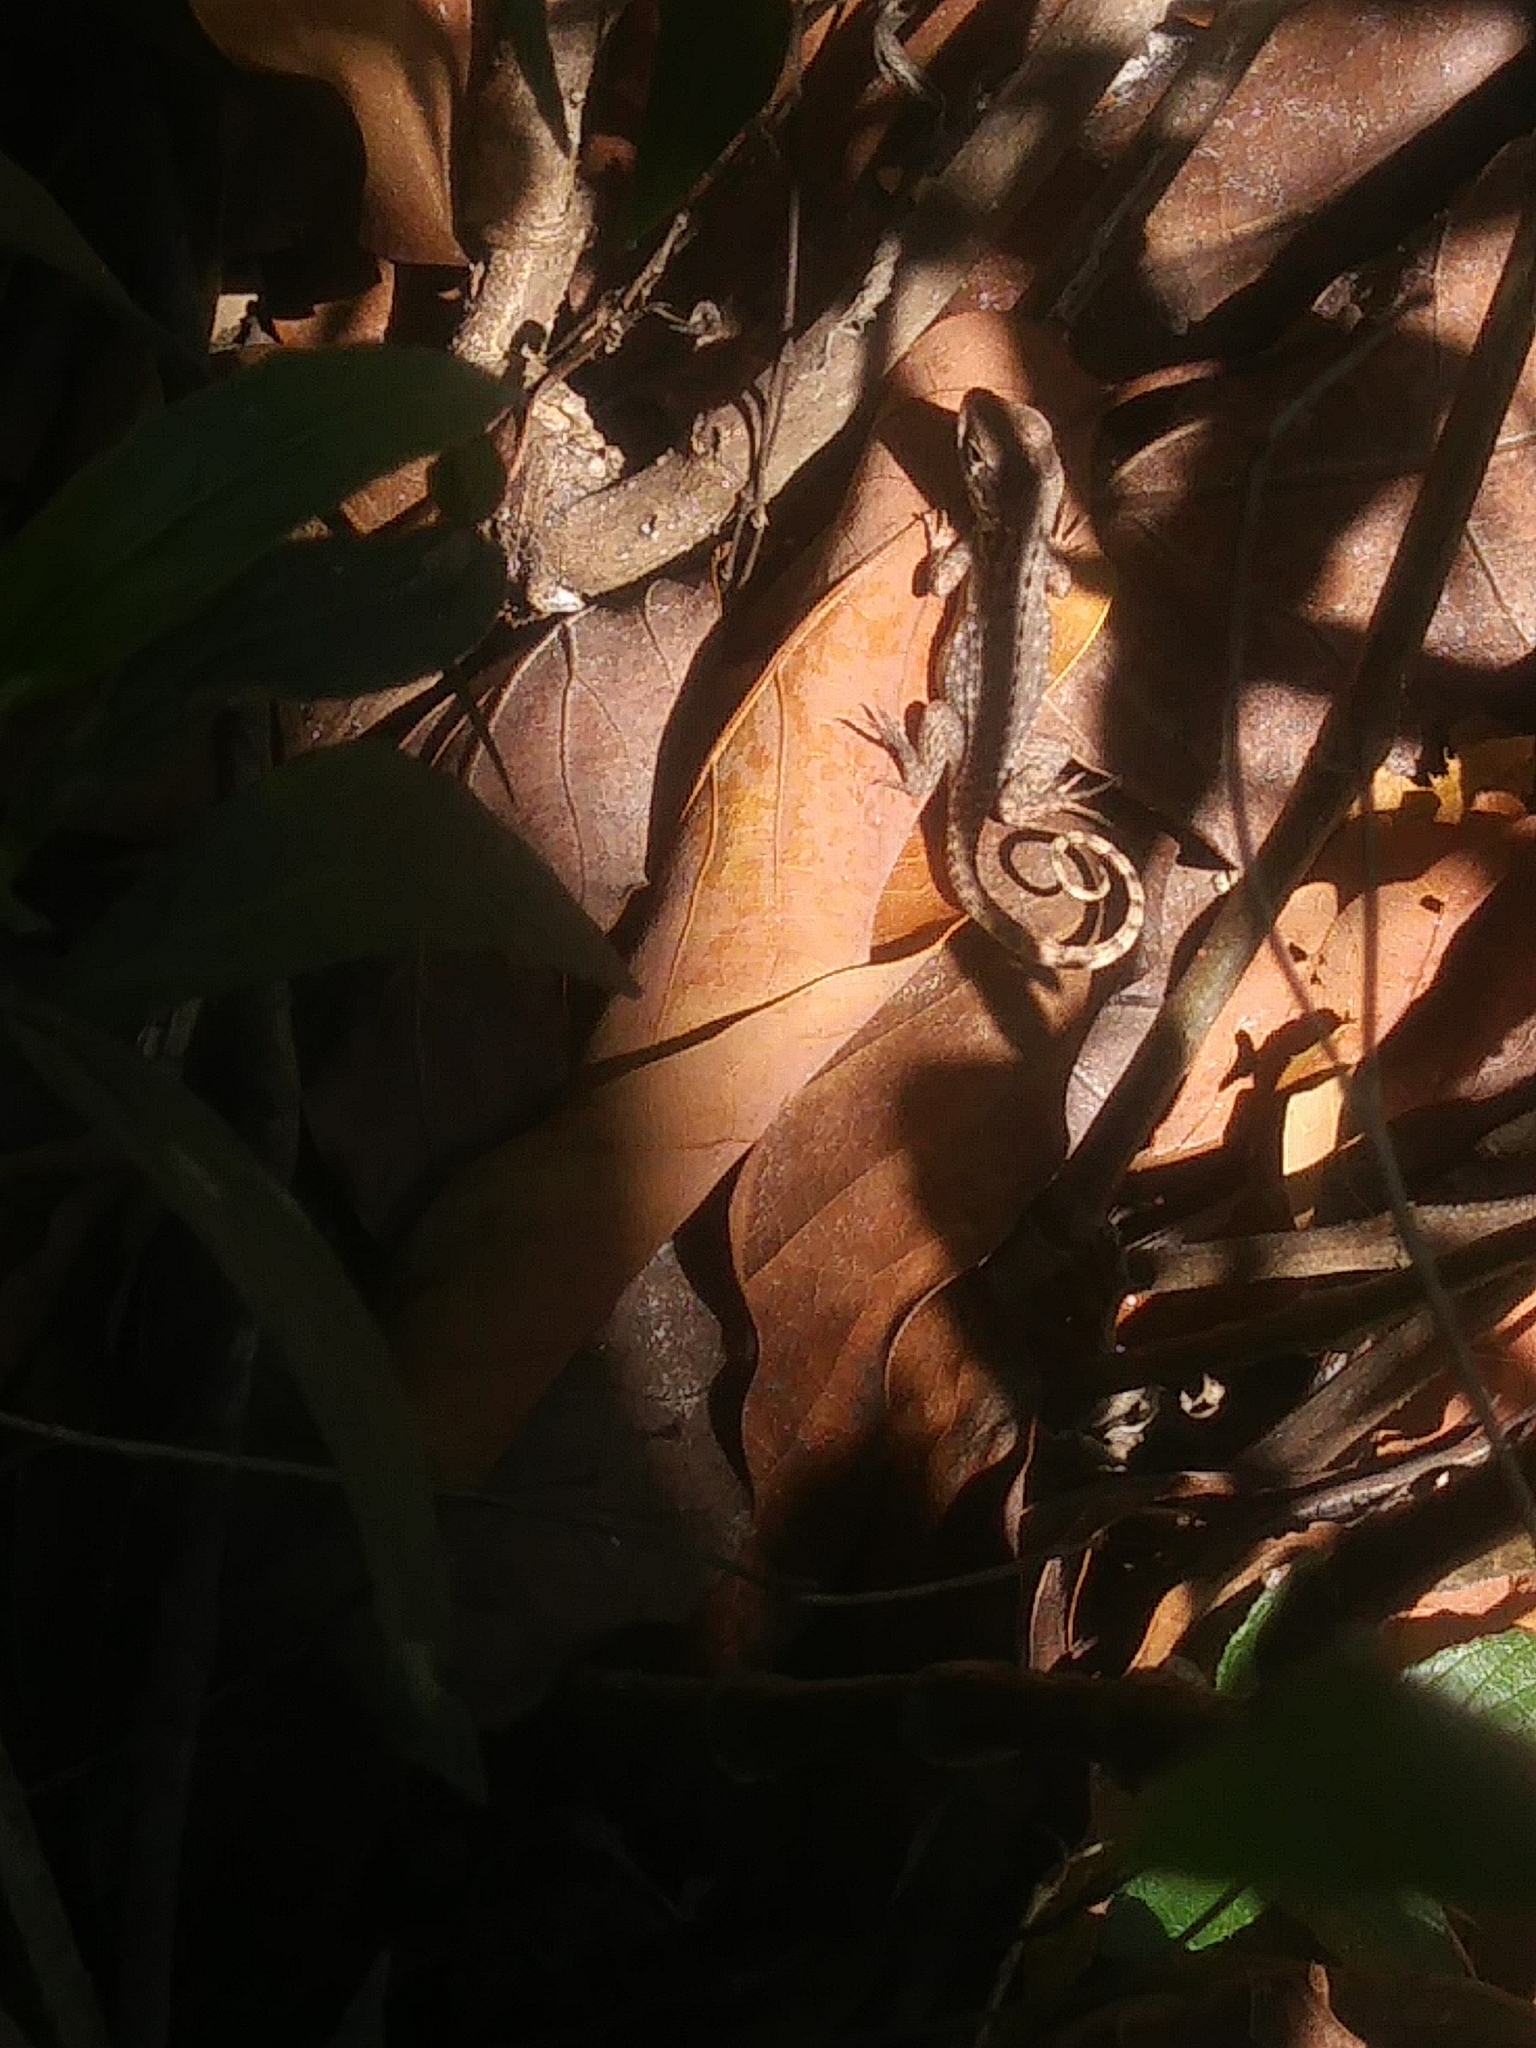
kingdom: Animalia
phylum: Chordata
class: Squamata
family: Leiocephalidae
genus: Leiocephalus
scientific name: Leiocephalus carinatus
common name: Northern curly-tailed lizard
